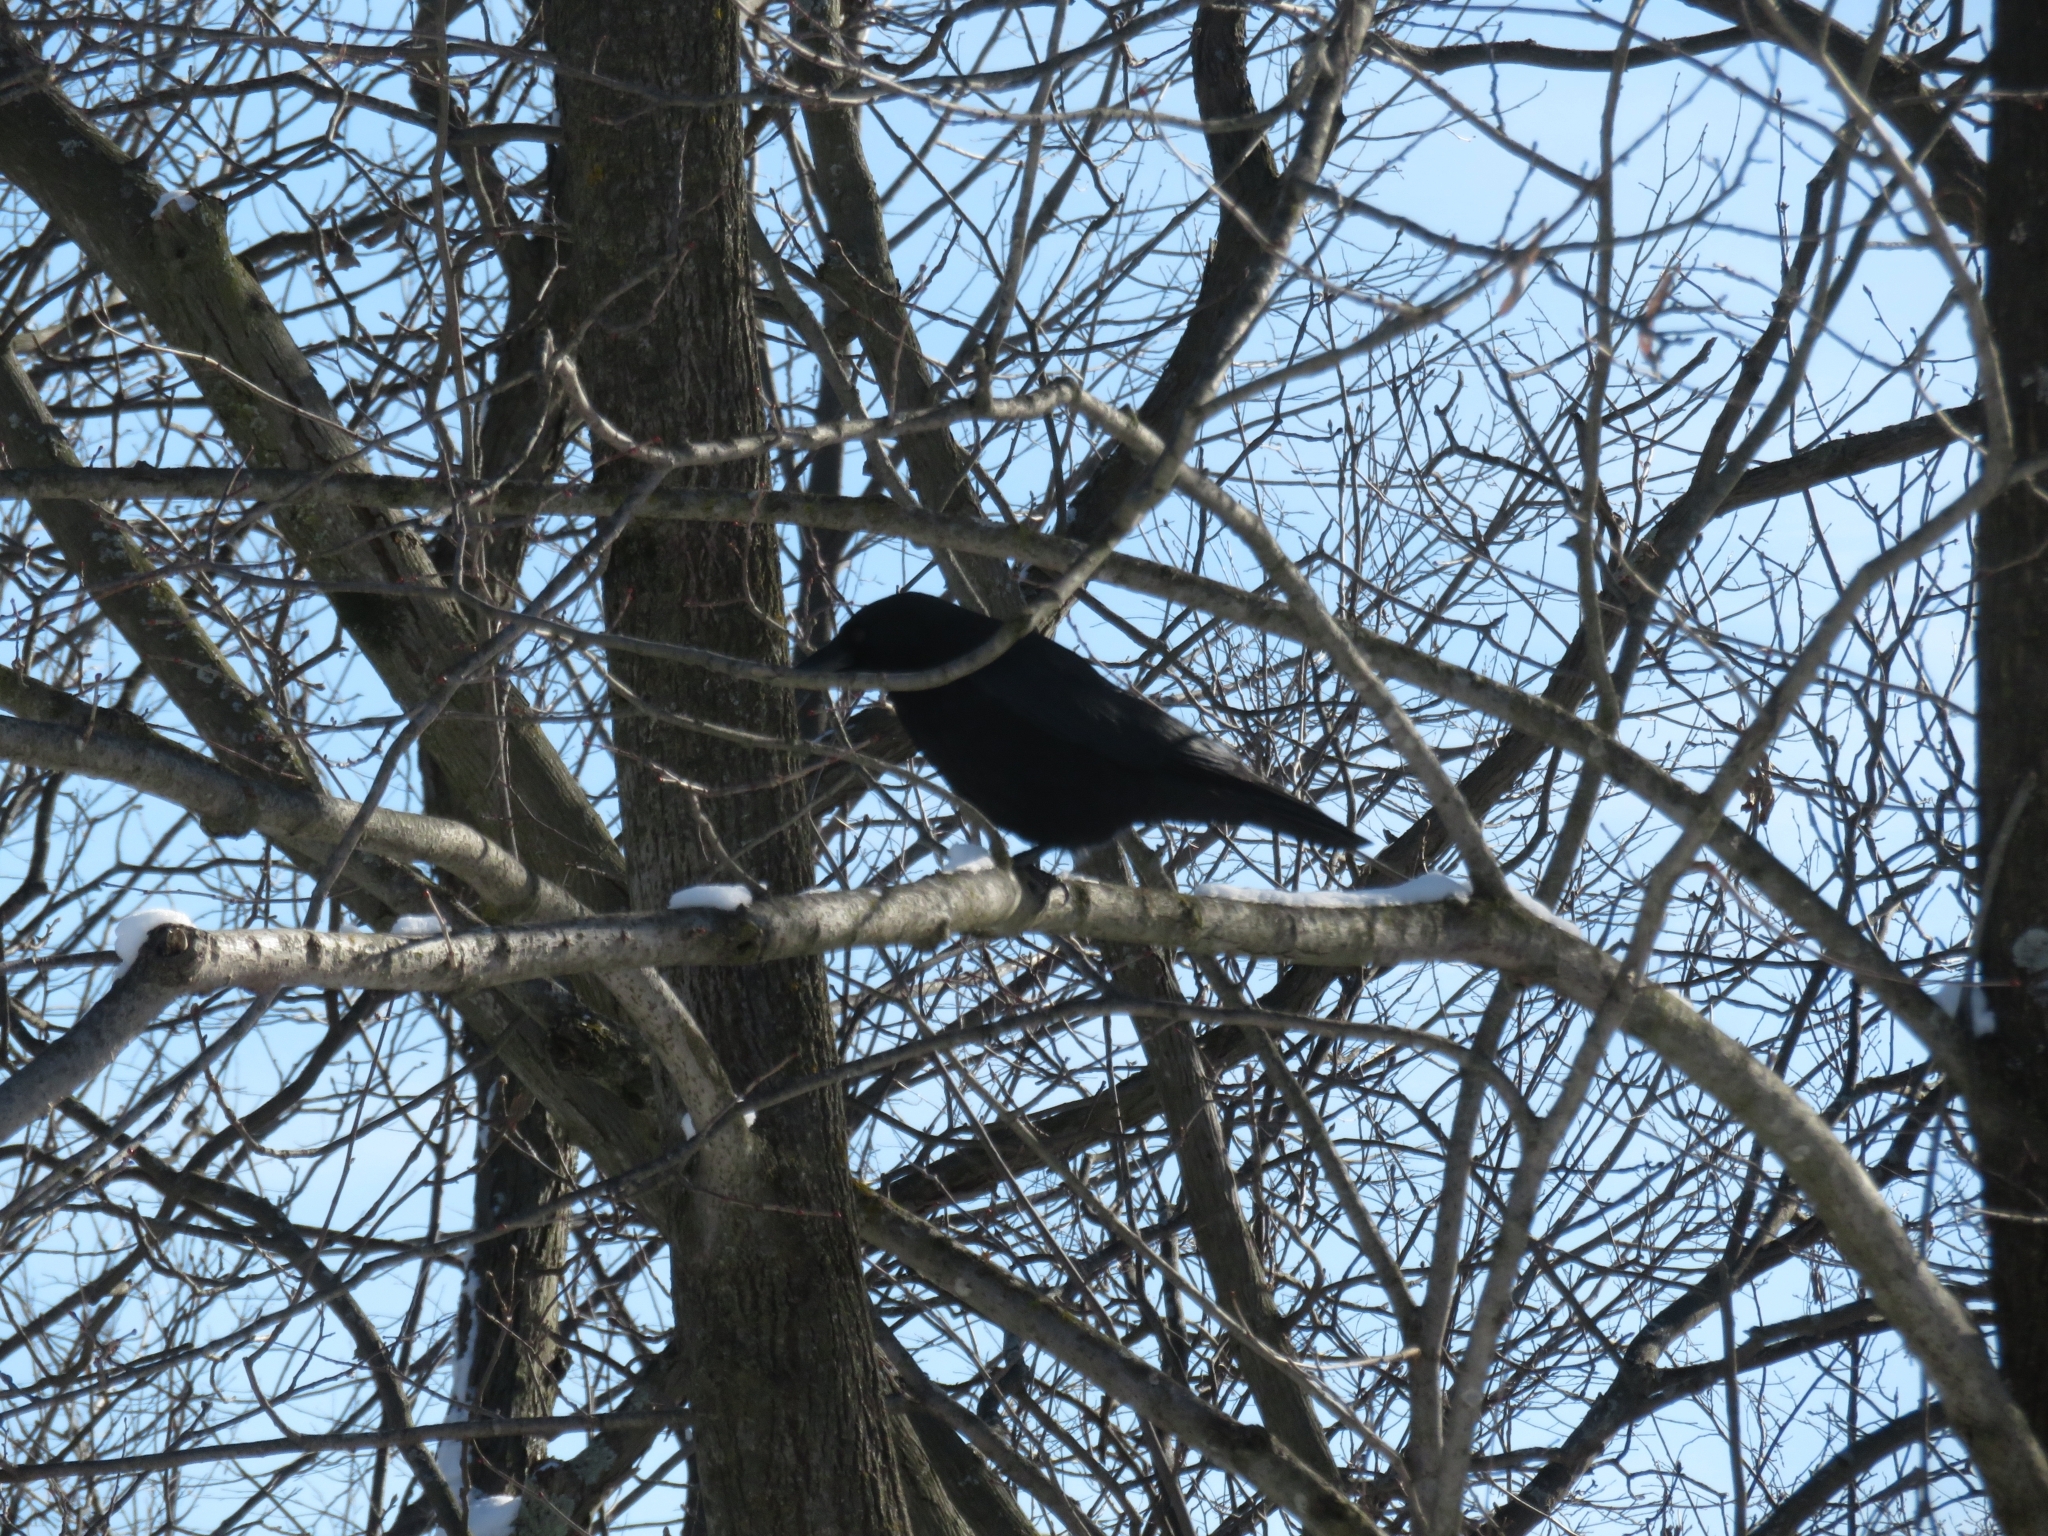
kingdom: Animalia
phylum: Chordata
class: Aves
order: Passeriformes
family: Corvidae
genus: Corvus
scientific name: Corvus brachyrhynchos
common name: American crow
